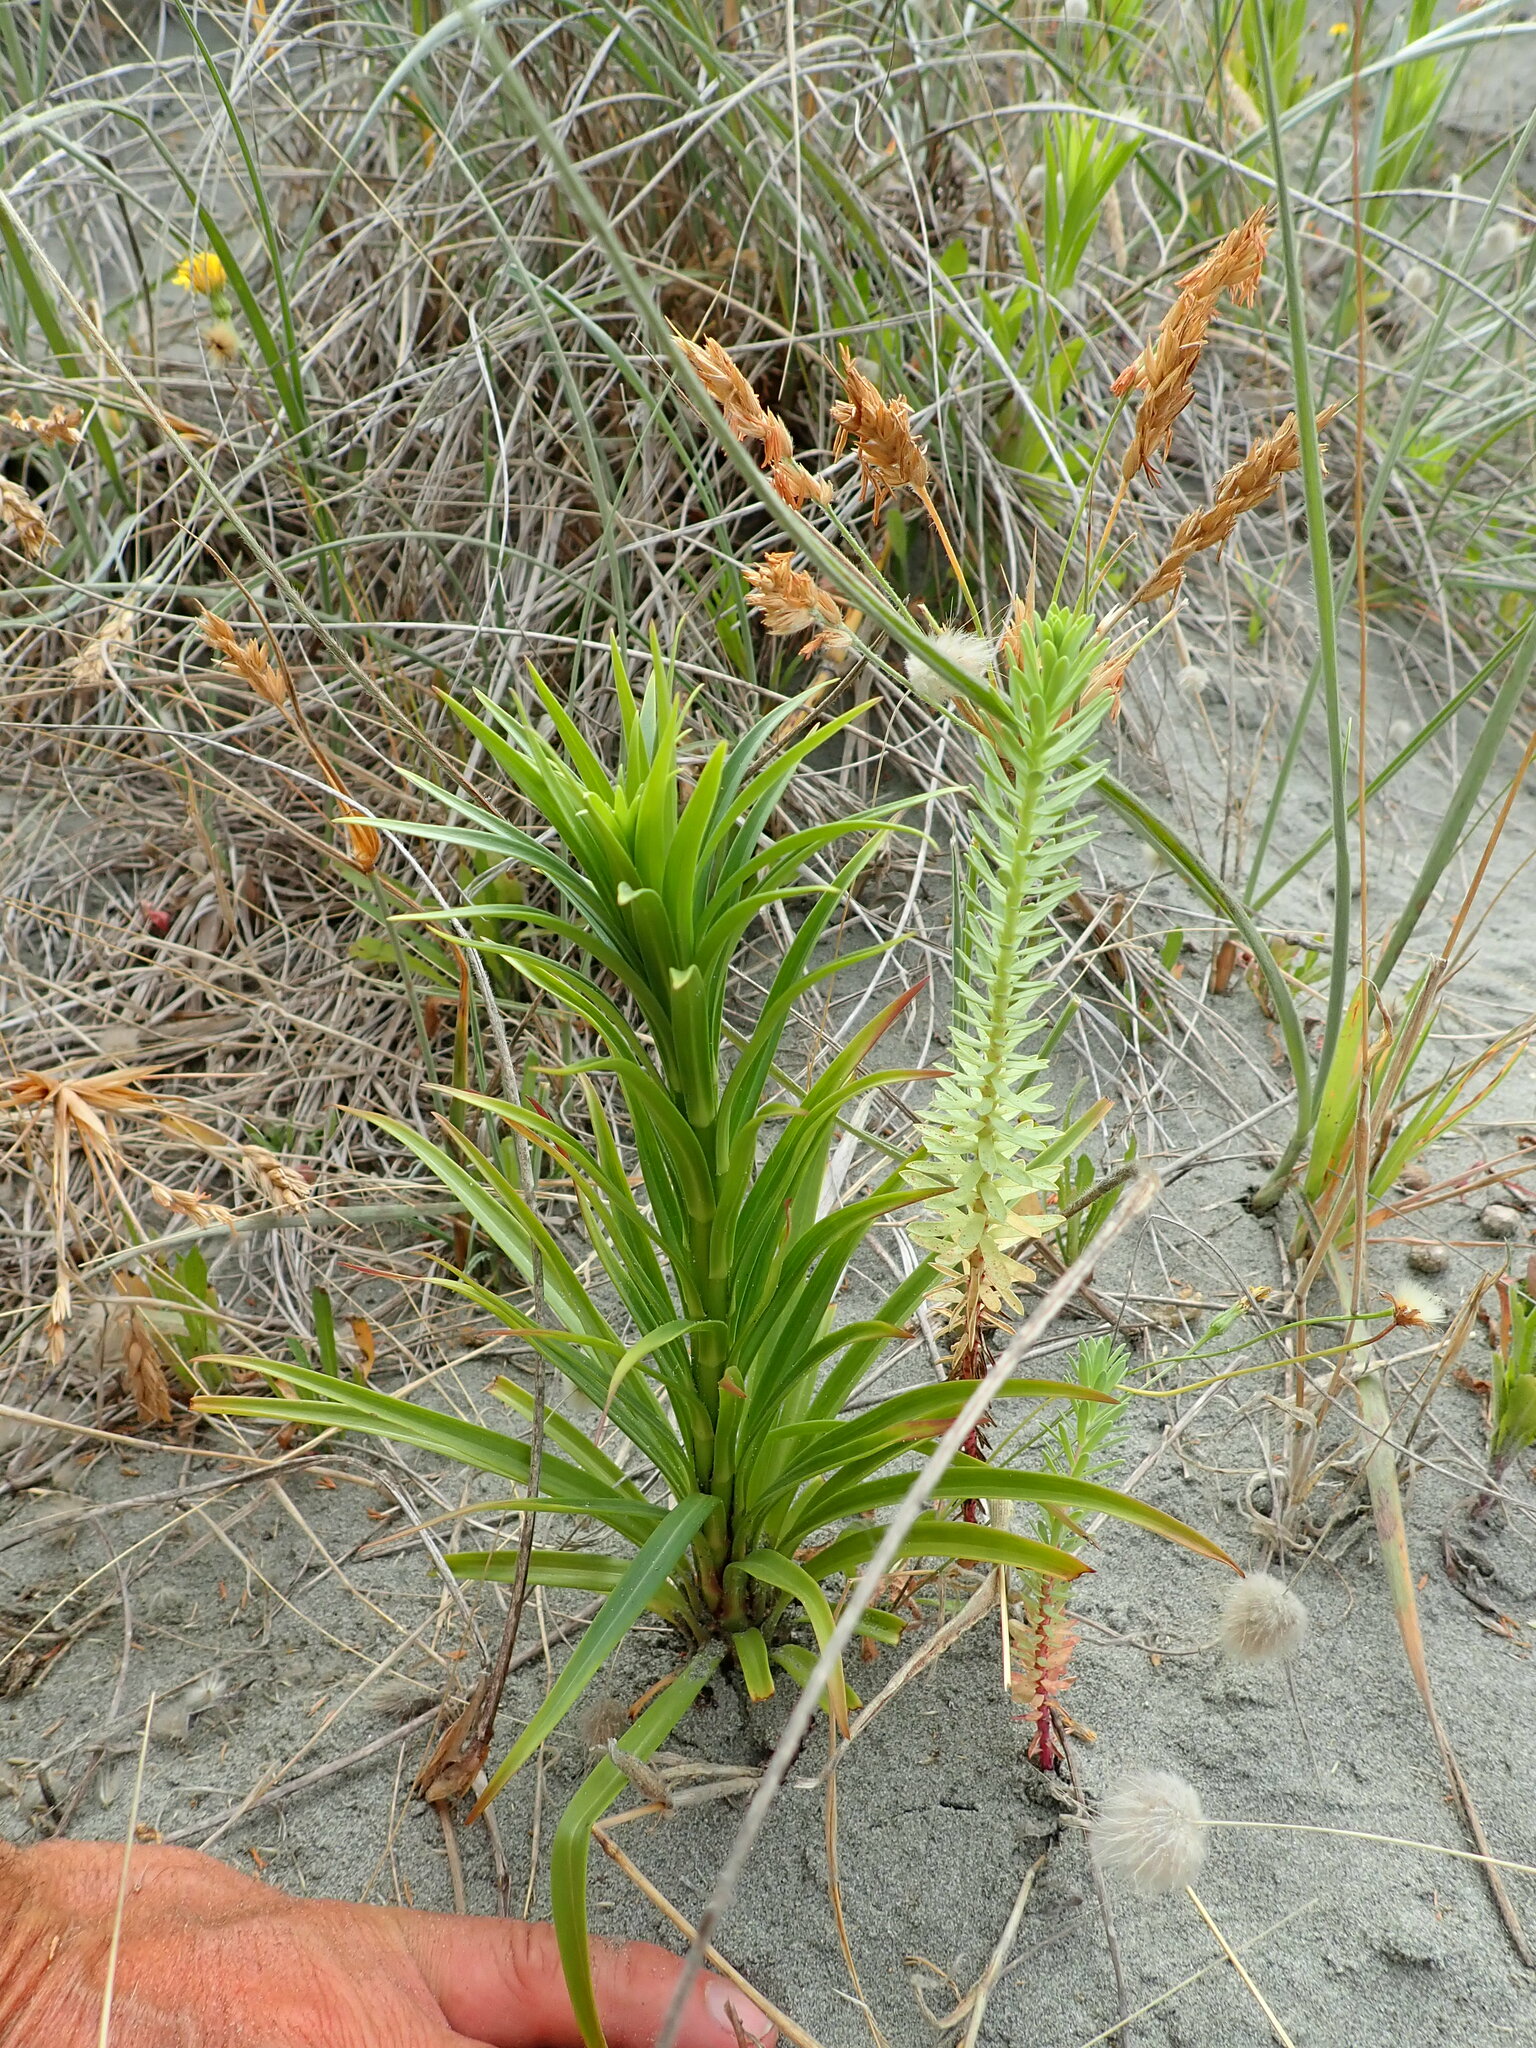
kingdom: Plantae
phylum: Tracheophyta
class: Liliopsida
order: Liliales
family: Liliaceae
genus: Lilium
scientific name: Lilium formosanum
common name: Formosa lily
